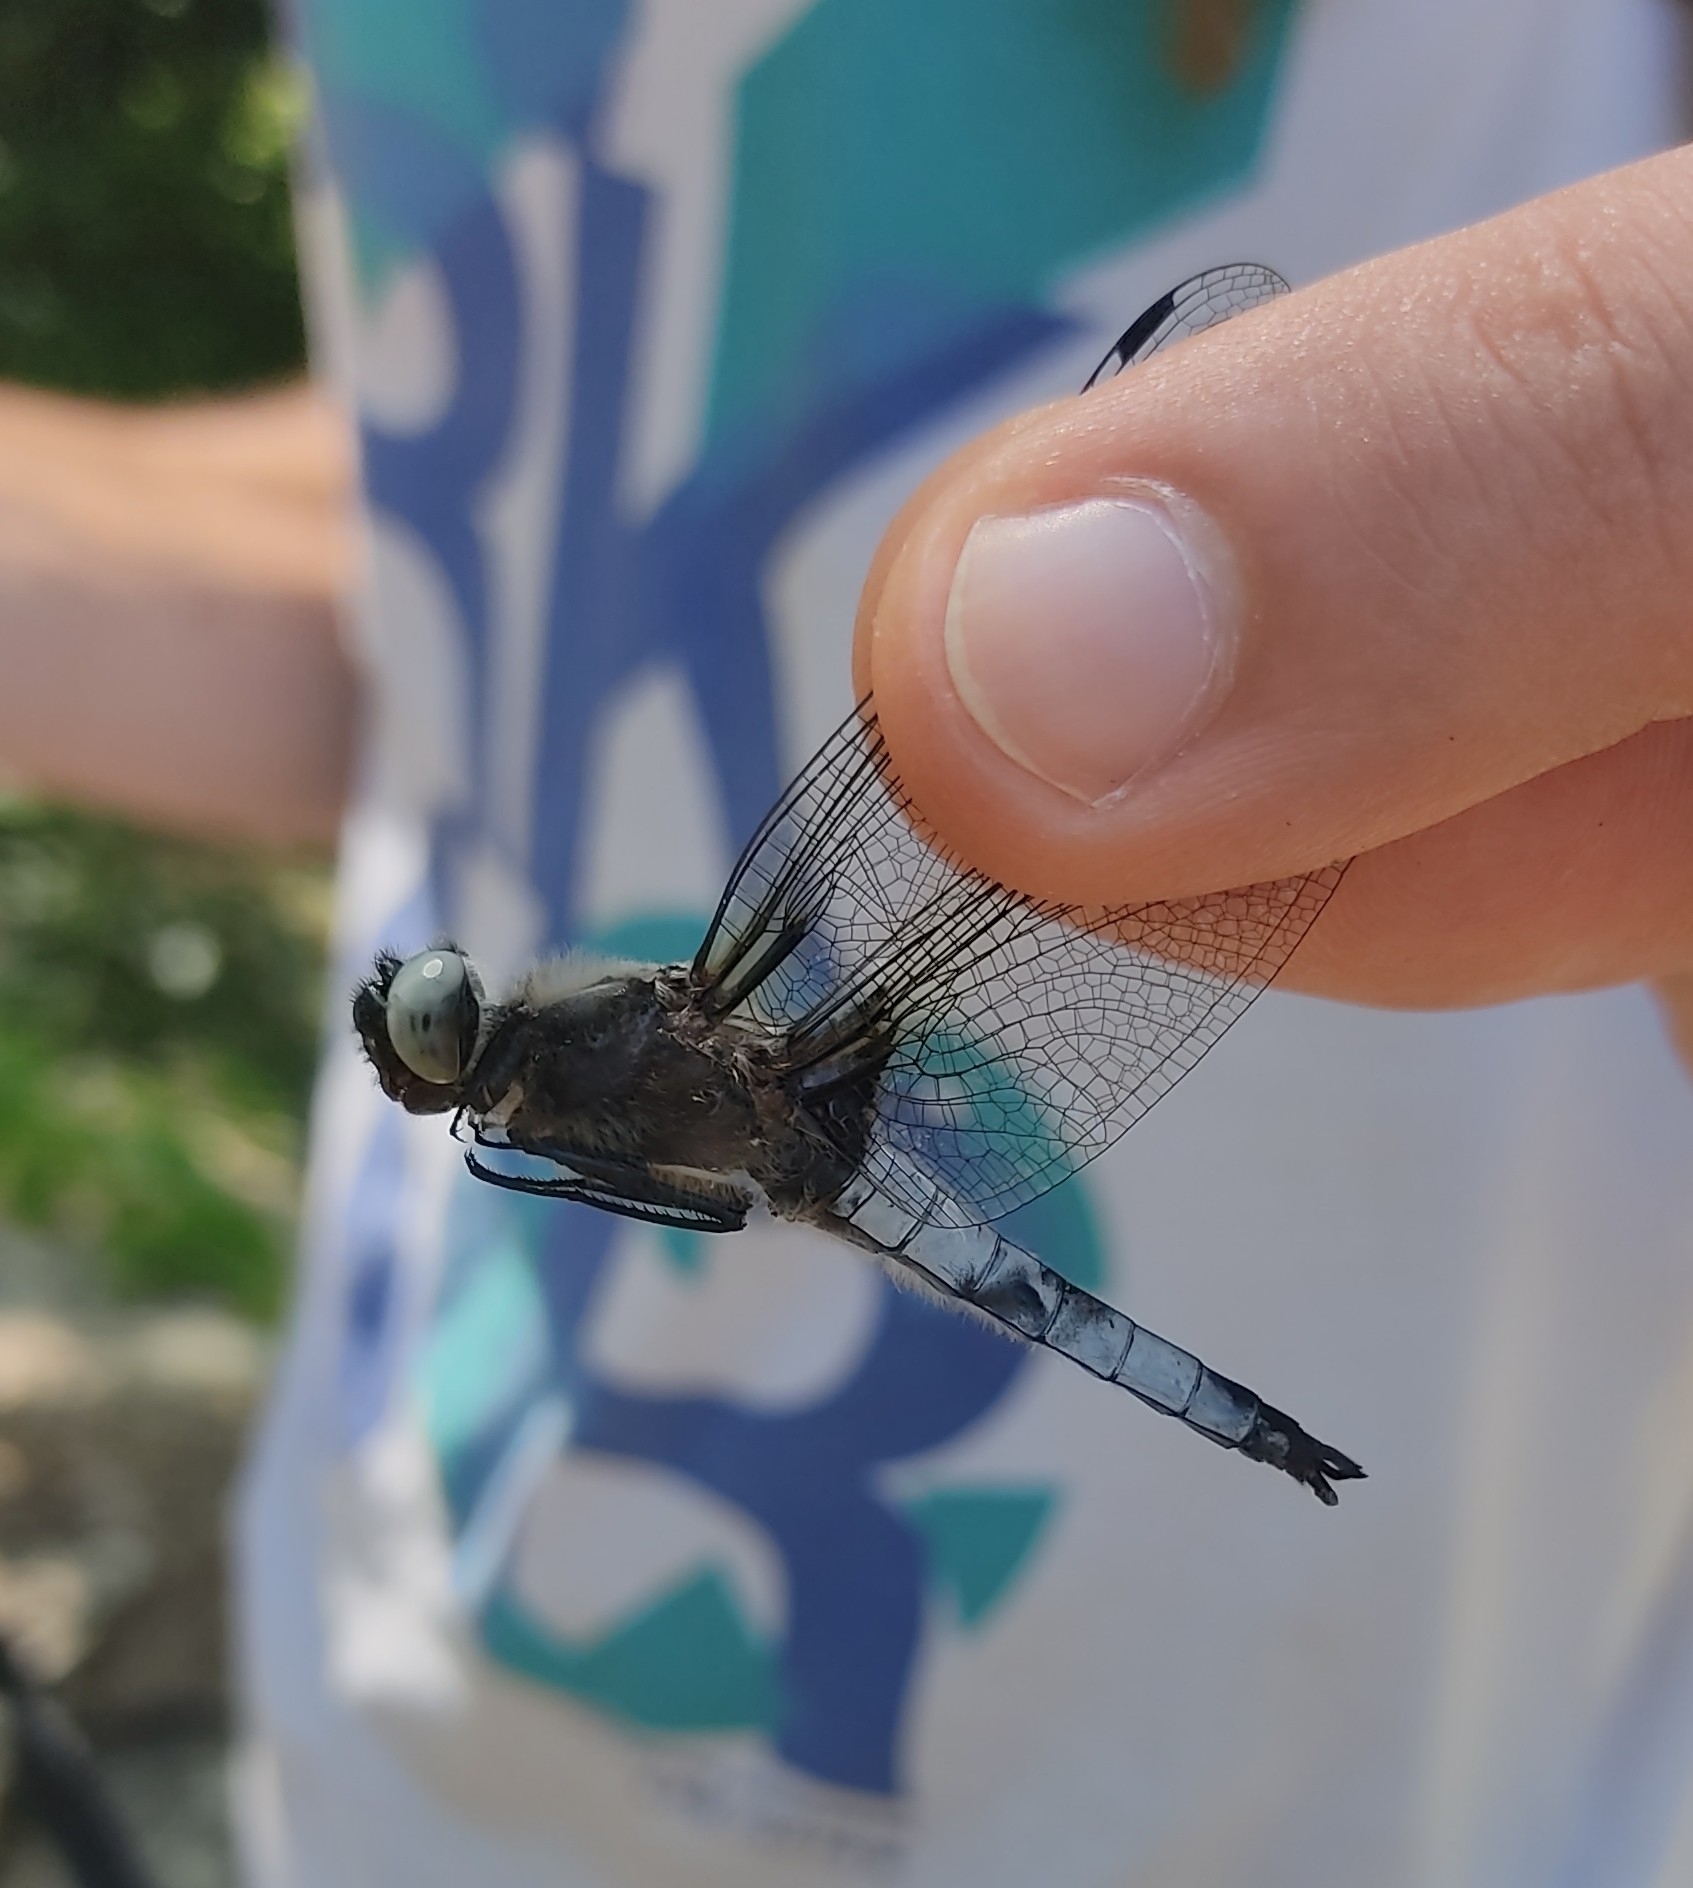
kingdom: Animalia
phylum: Arthropoda
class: Insecta
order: Odonata
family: Libellulidae
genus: Libellula
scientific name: Libellula fulva
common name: Blue chaser
